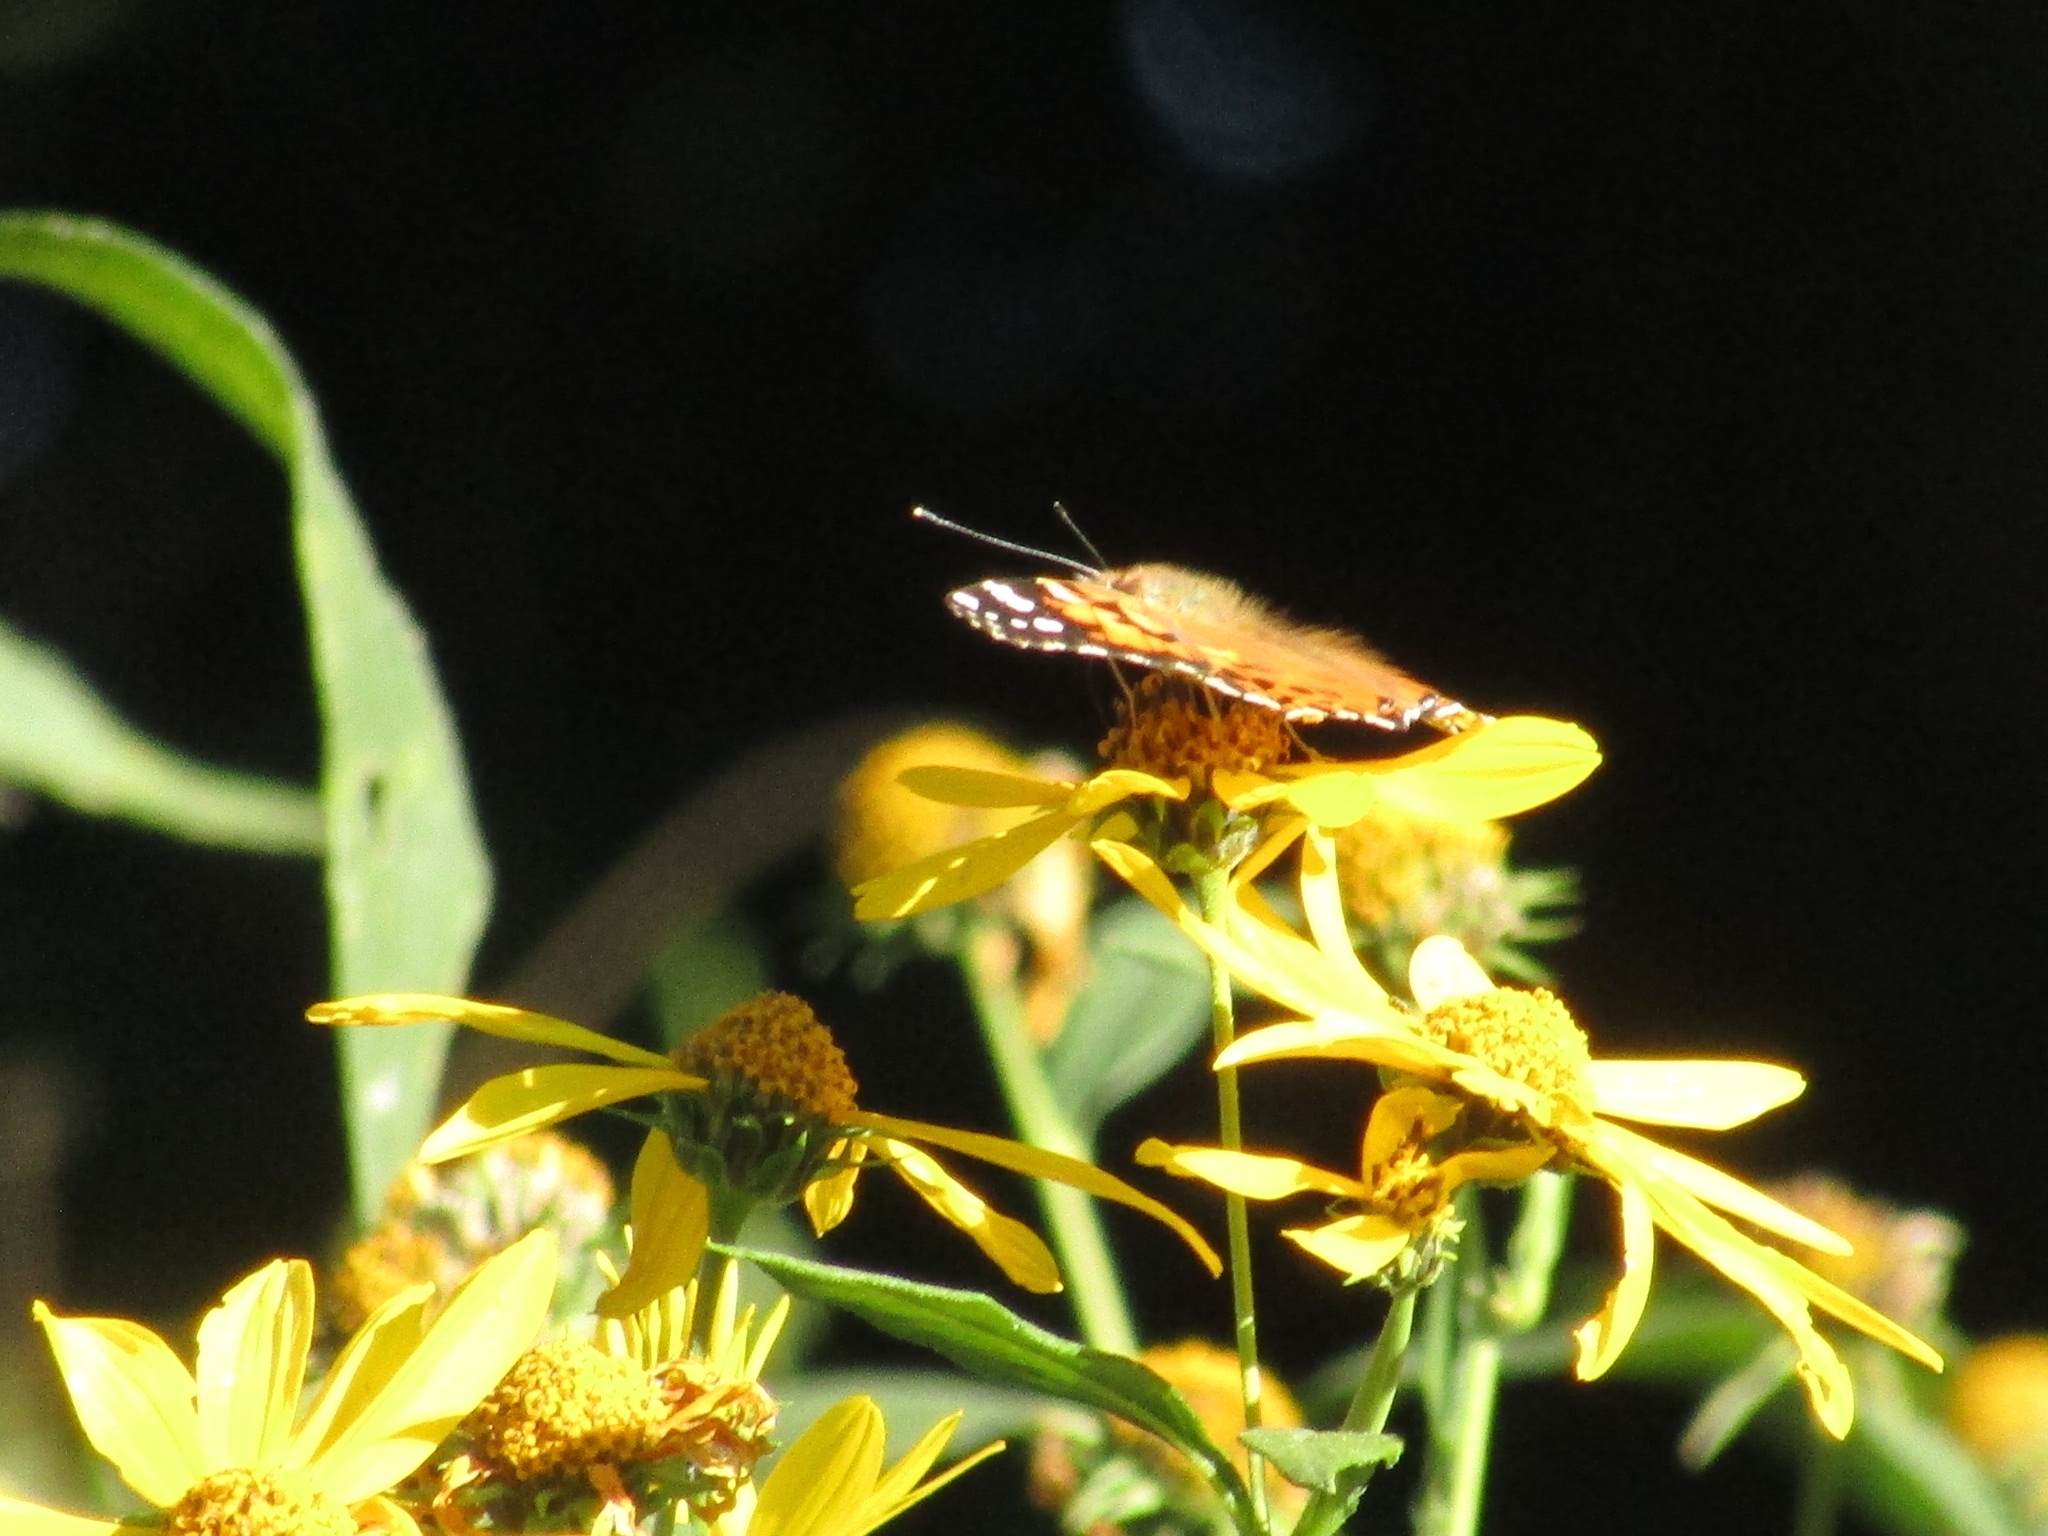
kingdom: Animalia
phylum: Arthropoda
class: Insecta
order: Lepidoptera
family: Nymphalidae
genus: Vanessa
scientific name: Vanessa cardui
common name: Painted lady
